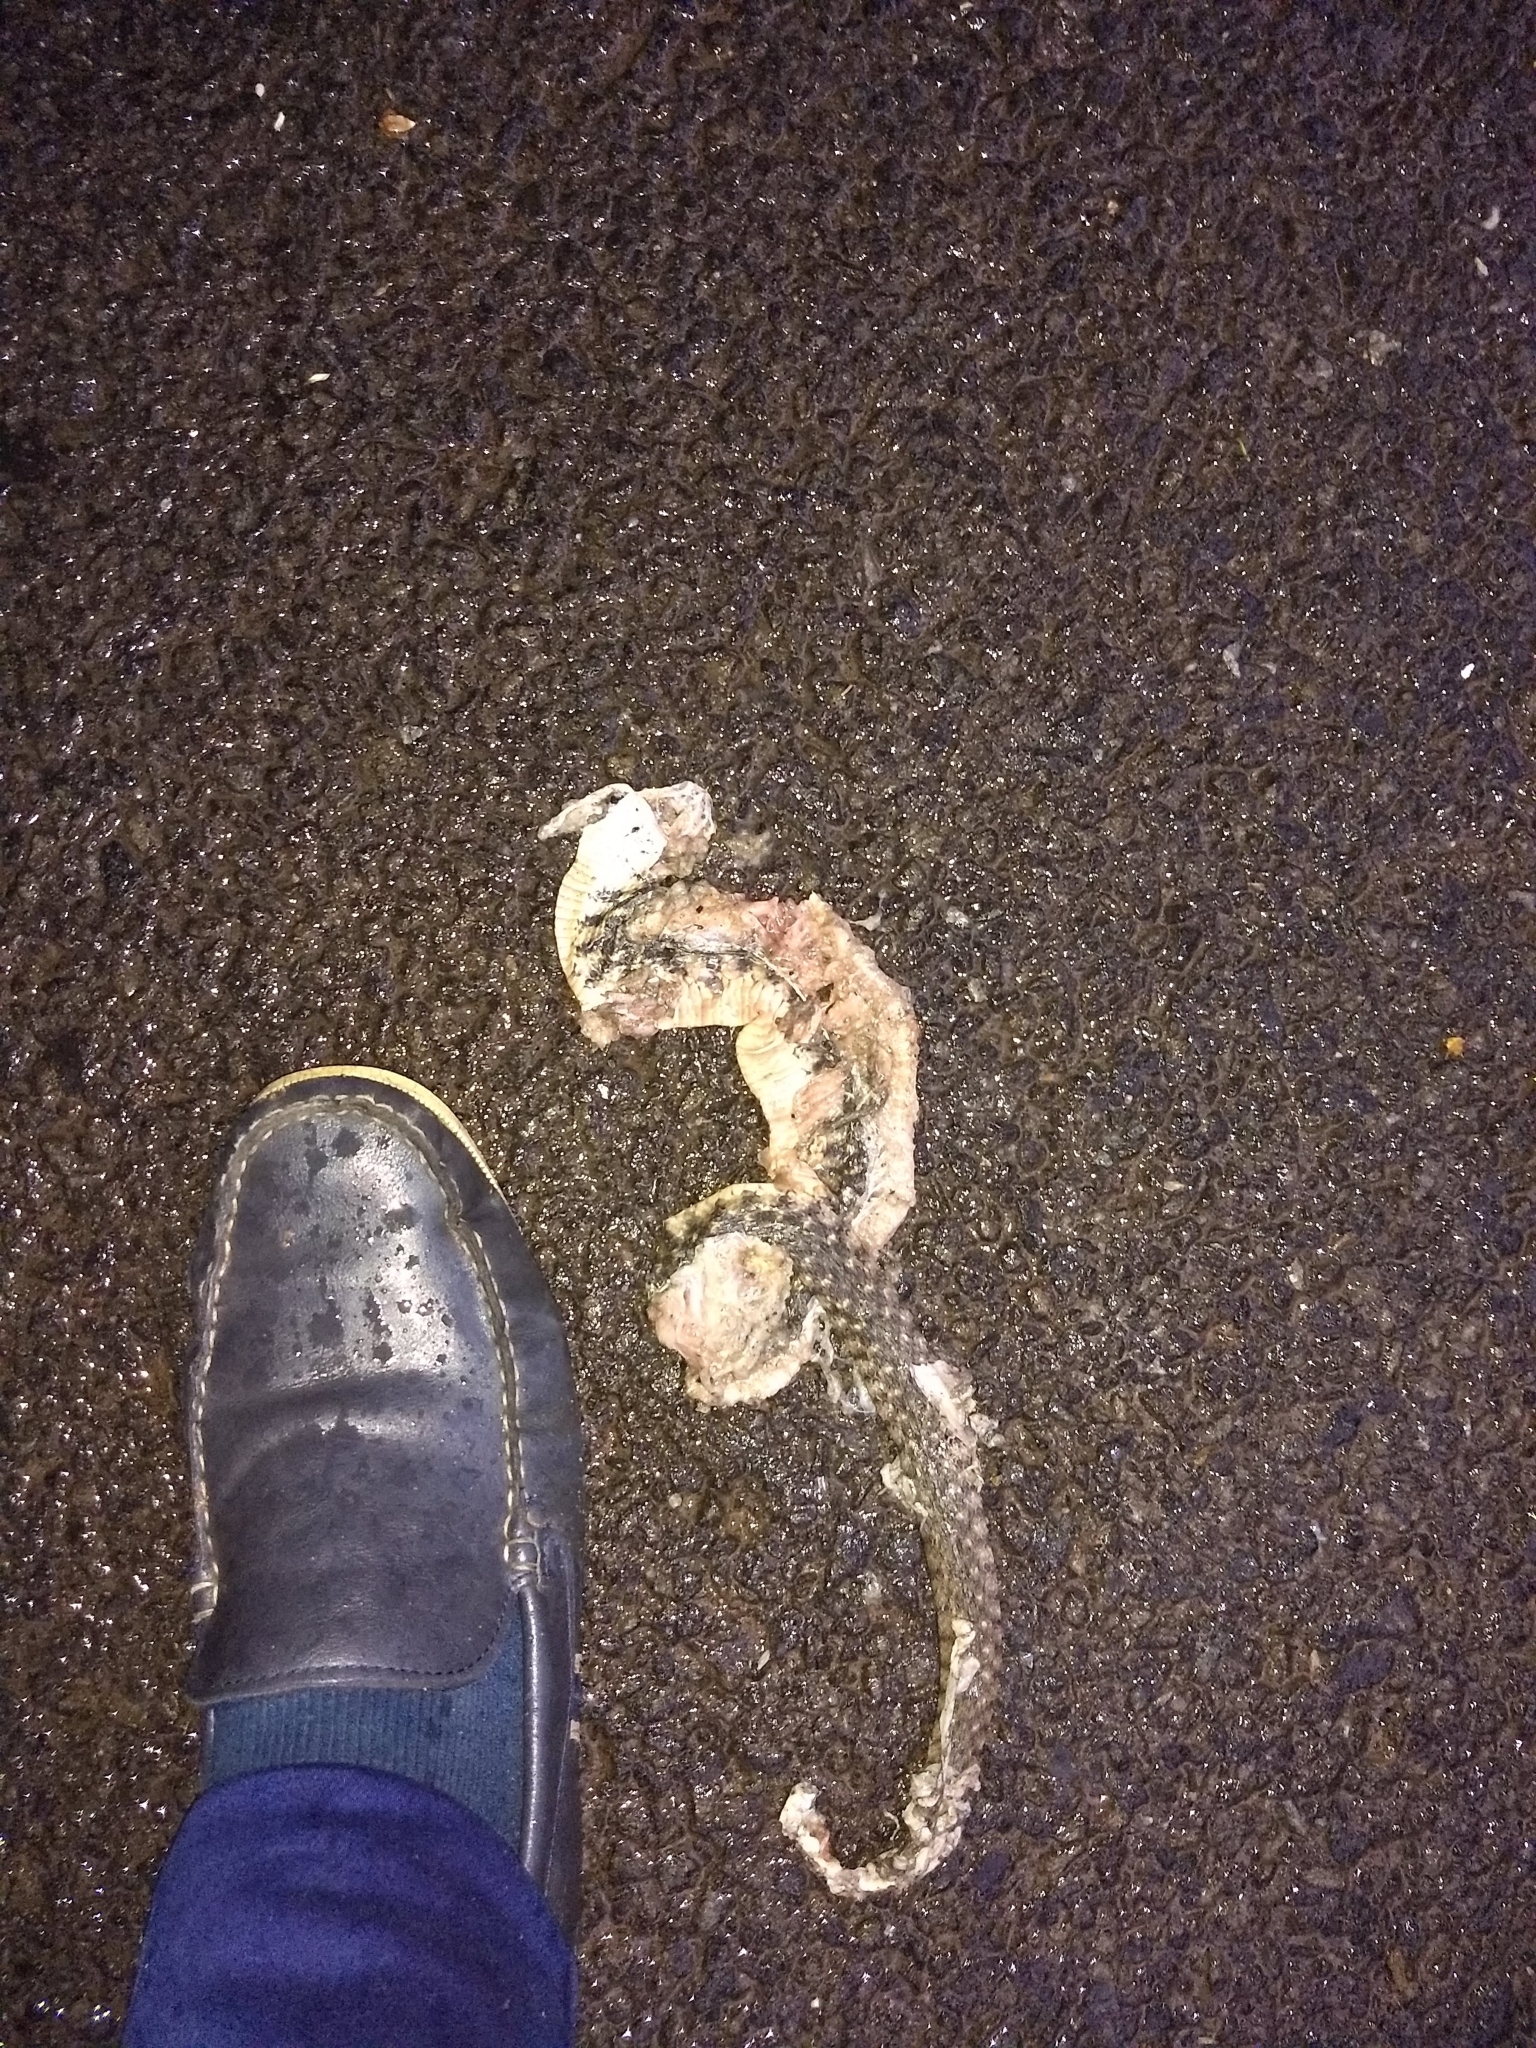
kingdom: Animalia
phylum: Chordata
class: Squamata
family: Colubridae
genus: Fowlea
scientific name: Fowlea piscator
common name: Asiatic water snake
